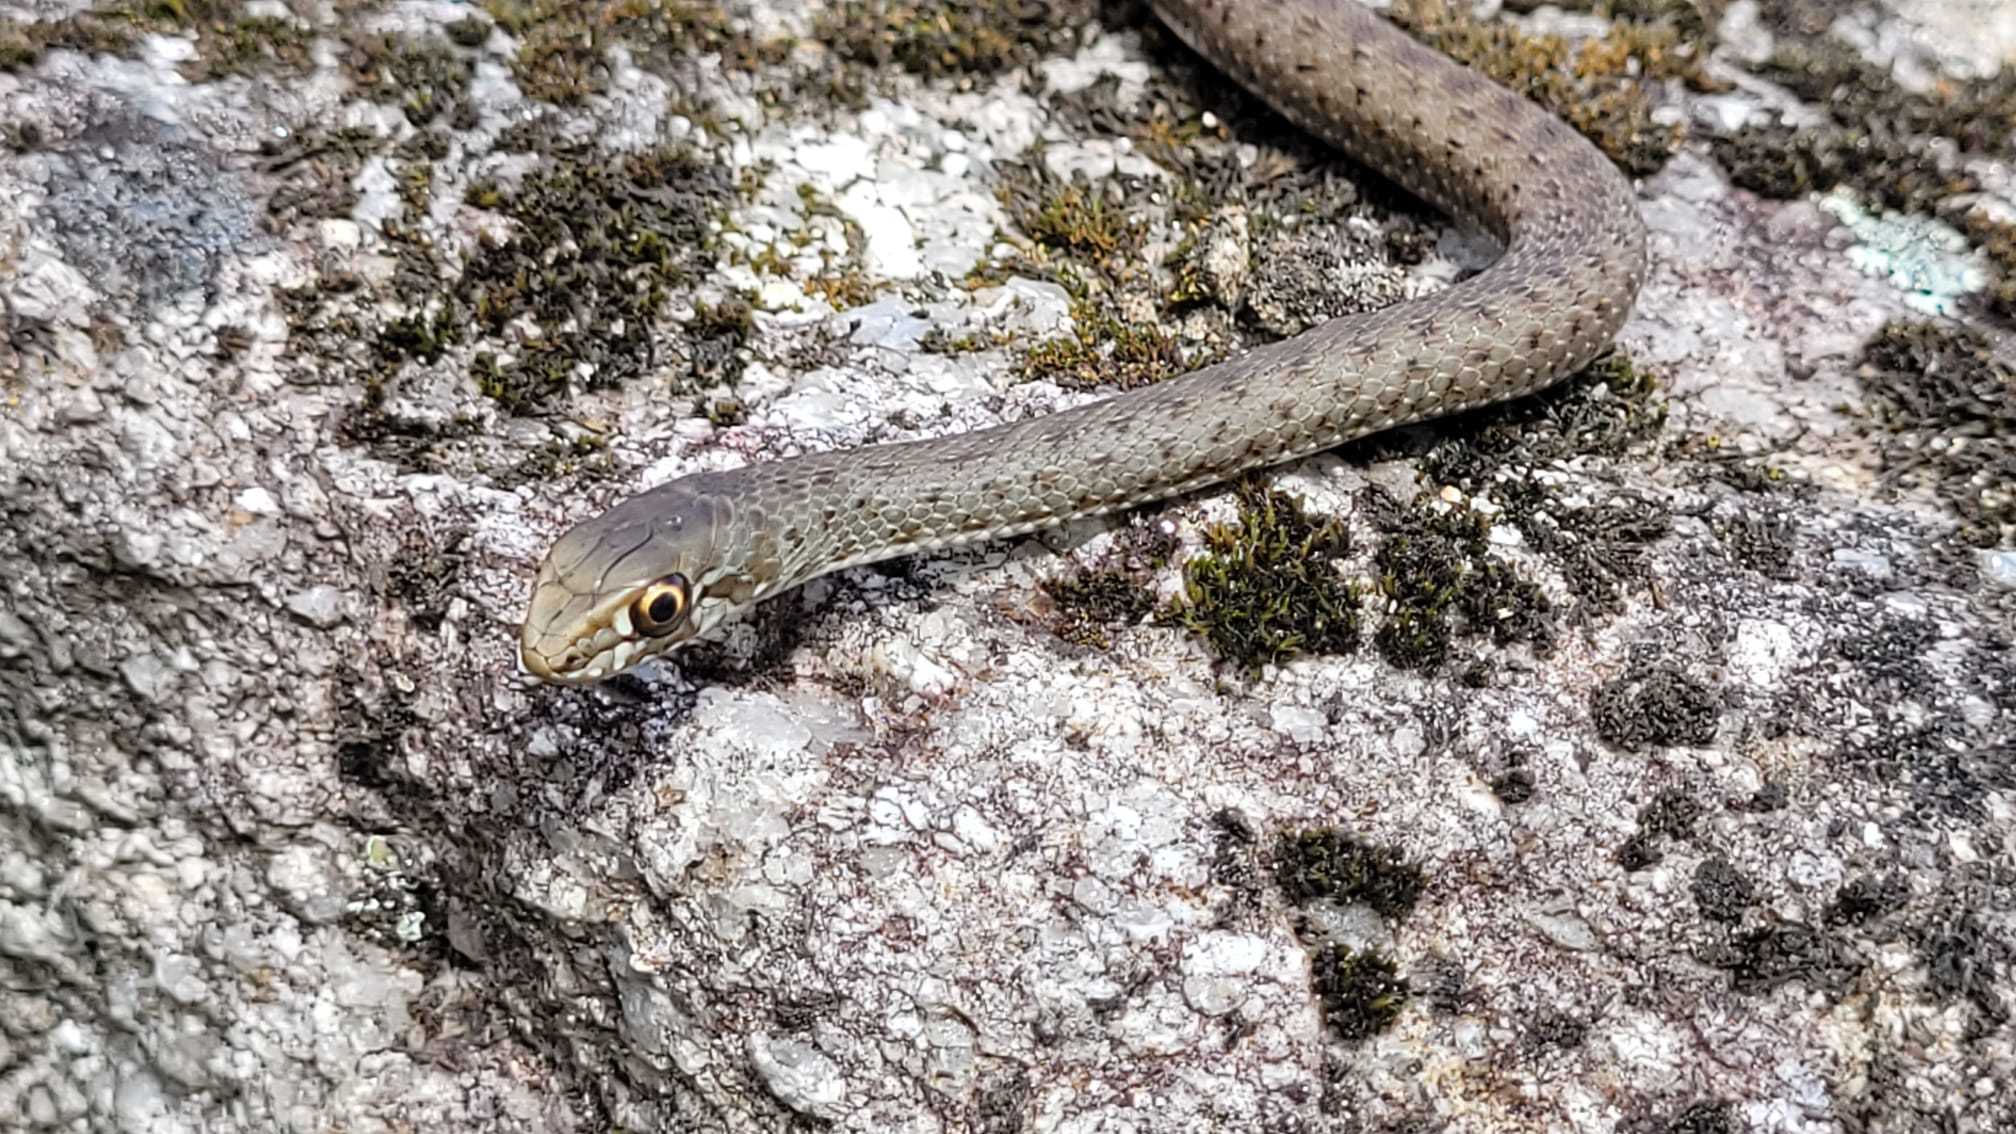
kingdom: Animalia
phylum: Chordata
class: Squamata
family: Psammophiidae
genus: Malpolon
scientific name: Malpolon monspessulanus
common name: Montpellier snake
